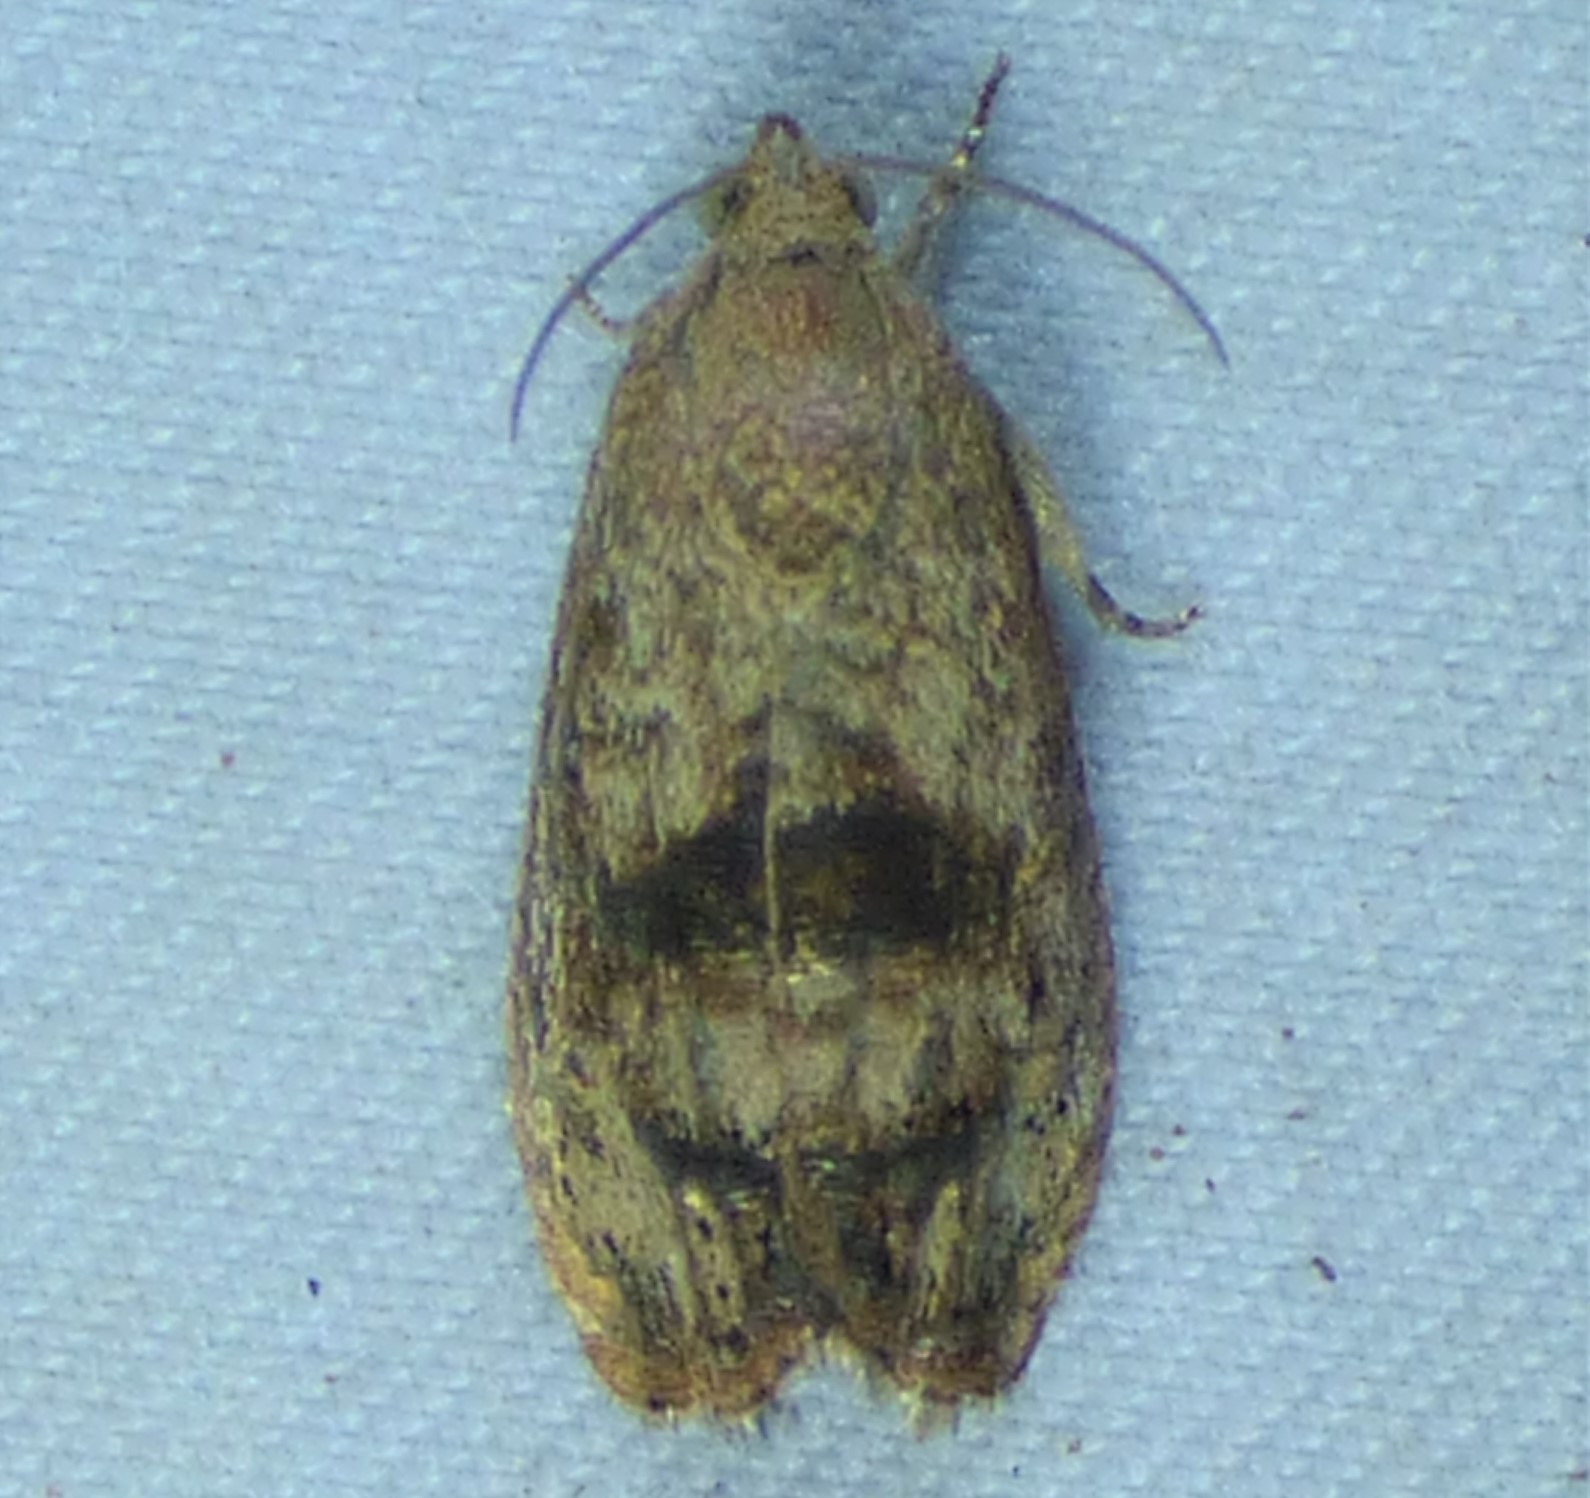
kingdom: Animalia
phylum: Arthropoda
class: Insecta
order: Lepidoptera
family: Tortricidae
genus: Cydia
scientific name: Cydia latiferreana
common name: Filbertworm moth
